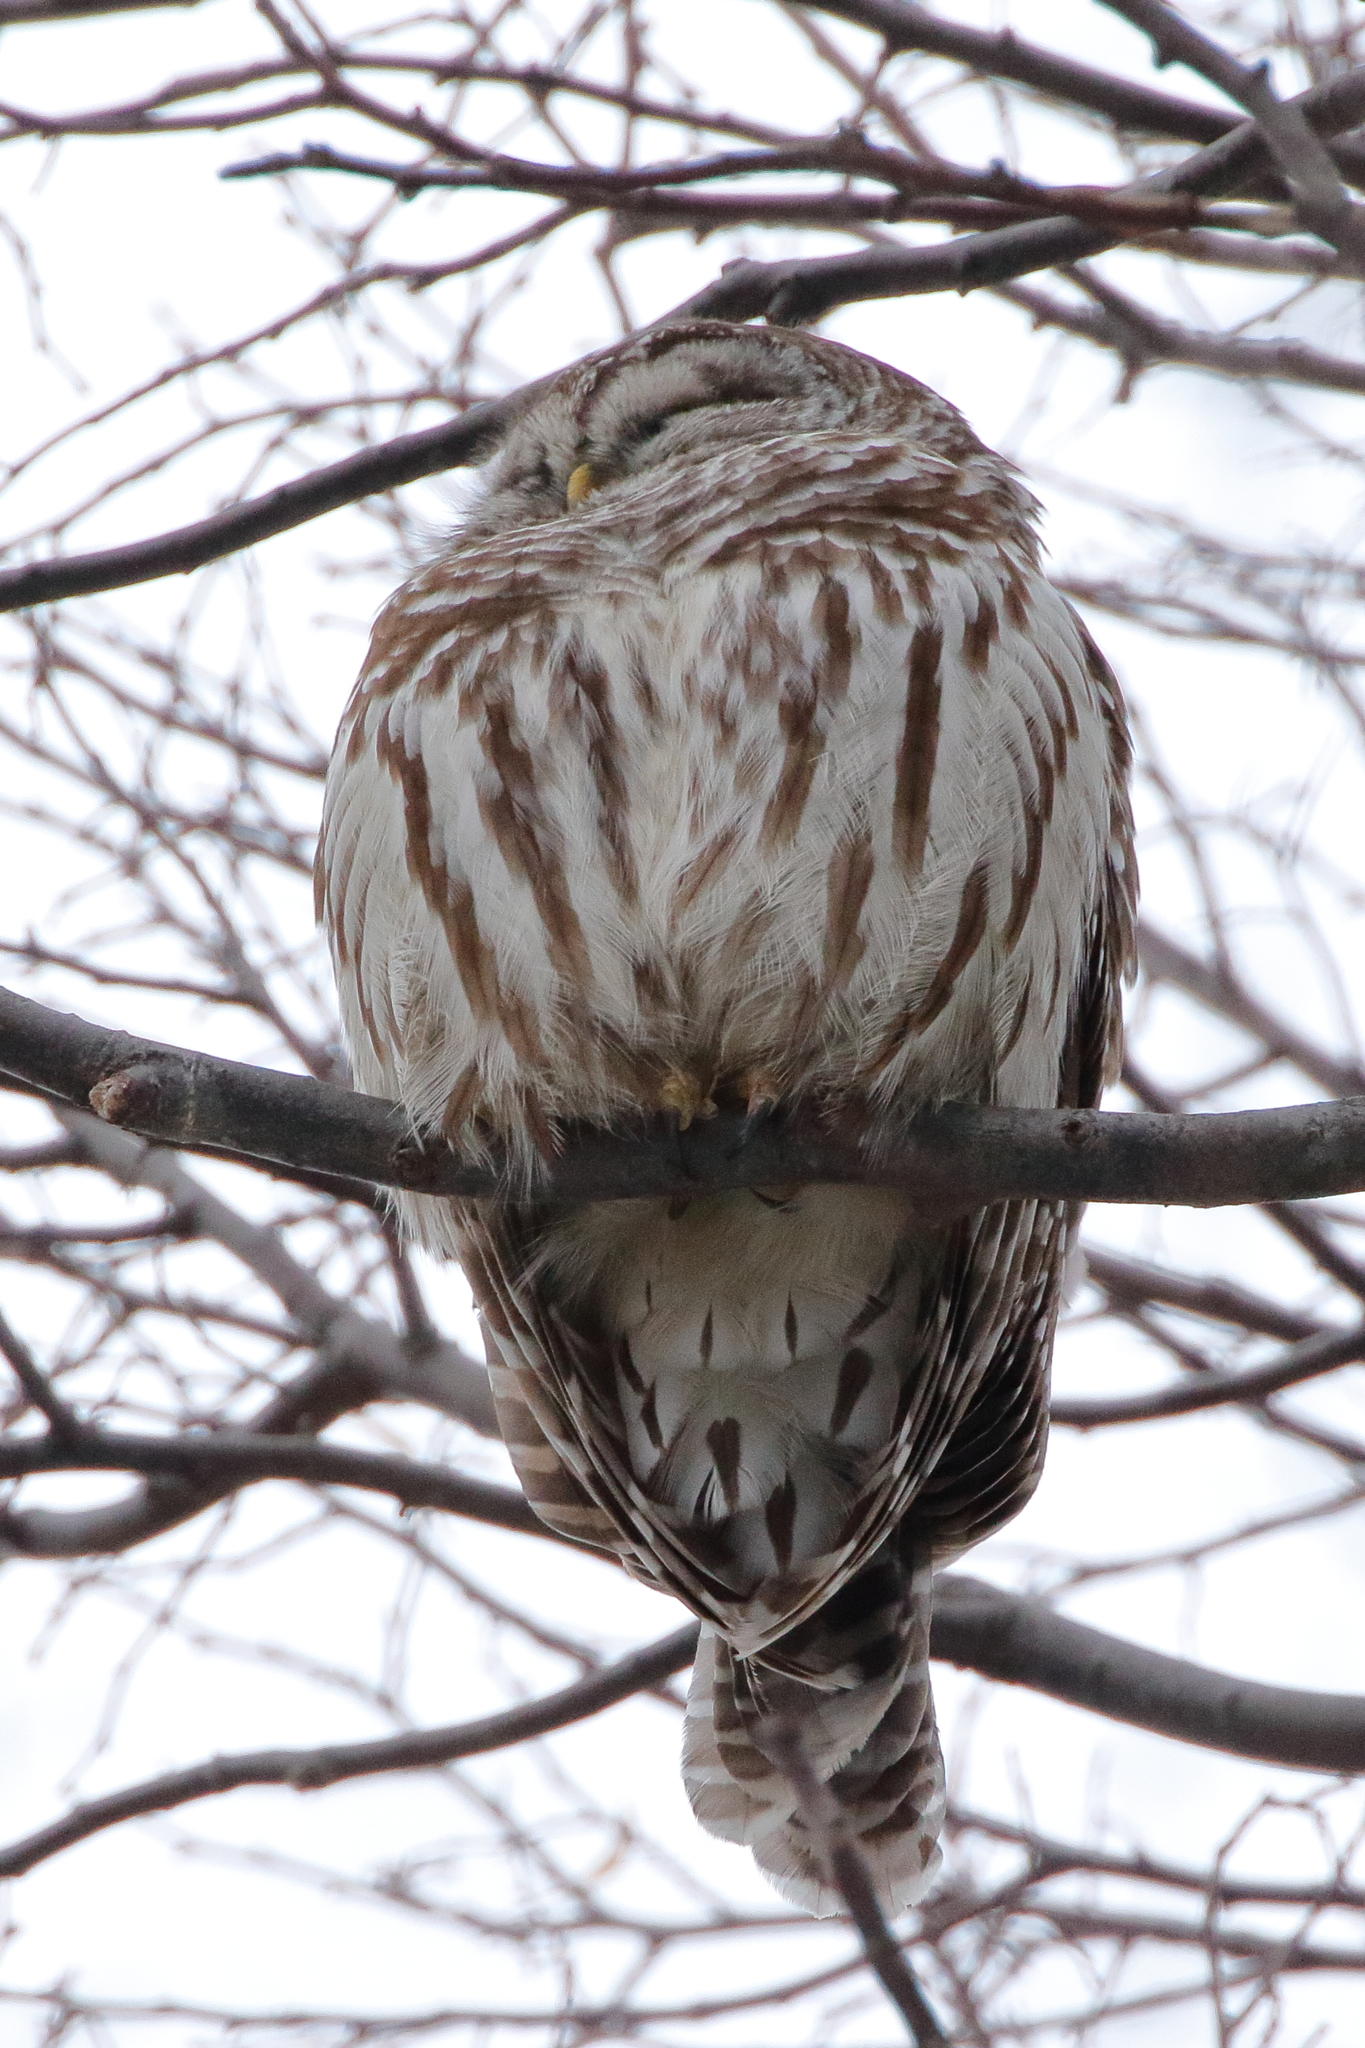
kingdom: Animalia
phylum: Chordata
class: Aves
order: Strigiformes
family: Strigidae
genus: Strix
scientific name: Strix varia
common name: Barred owl
